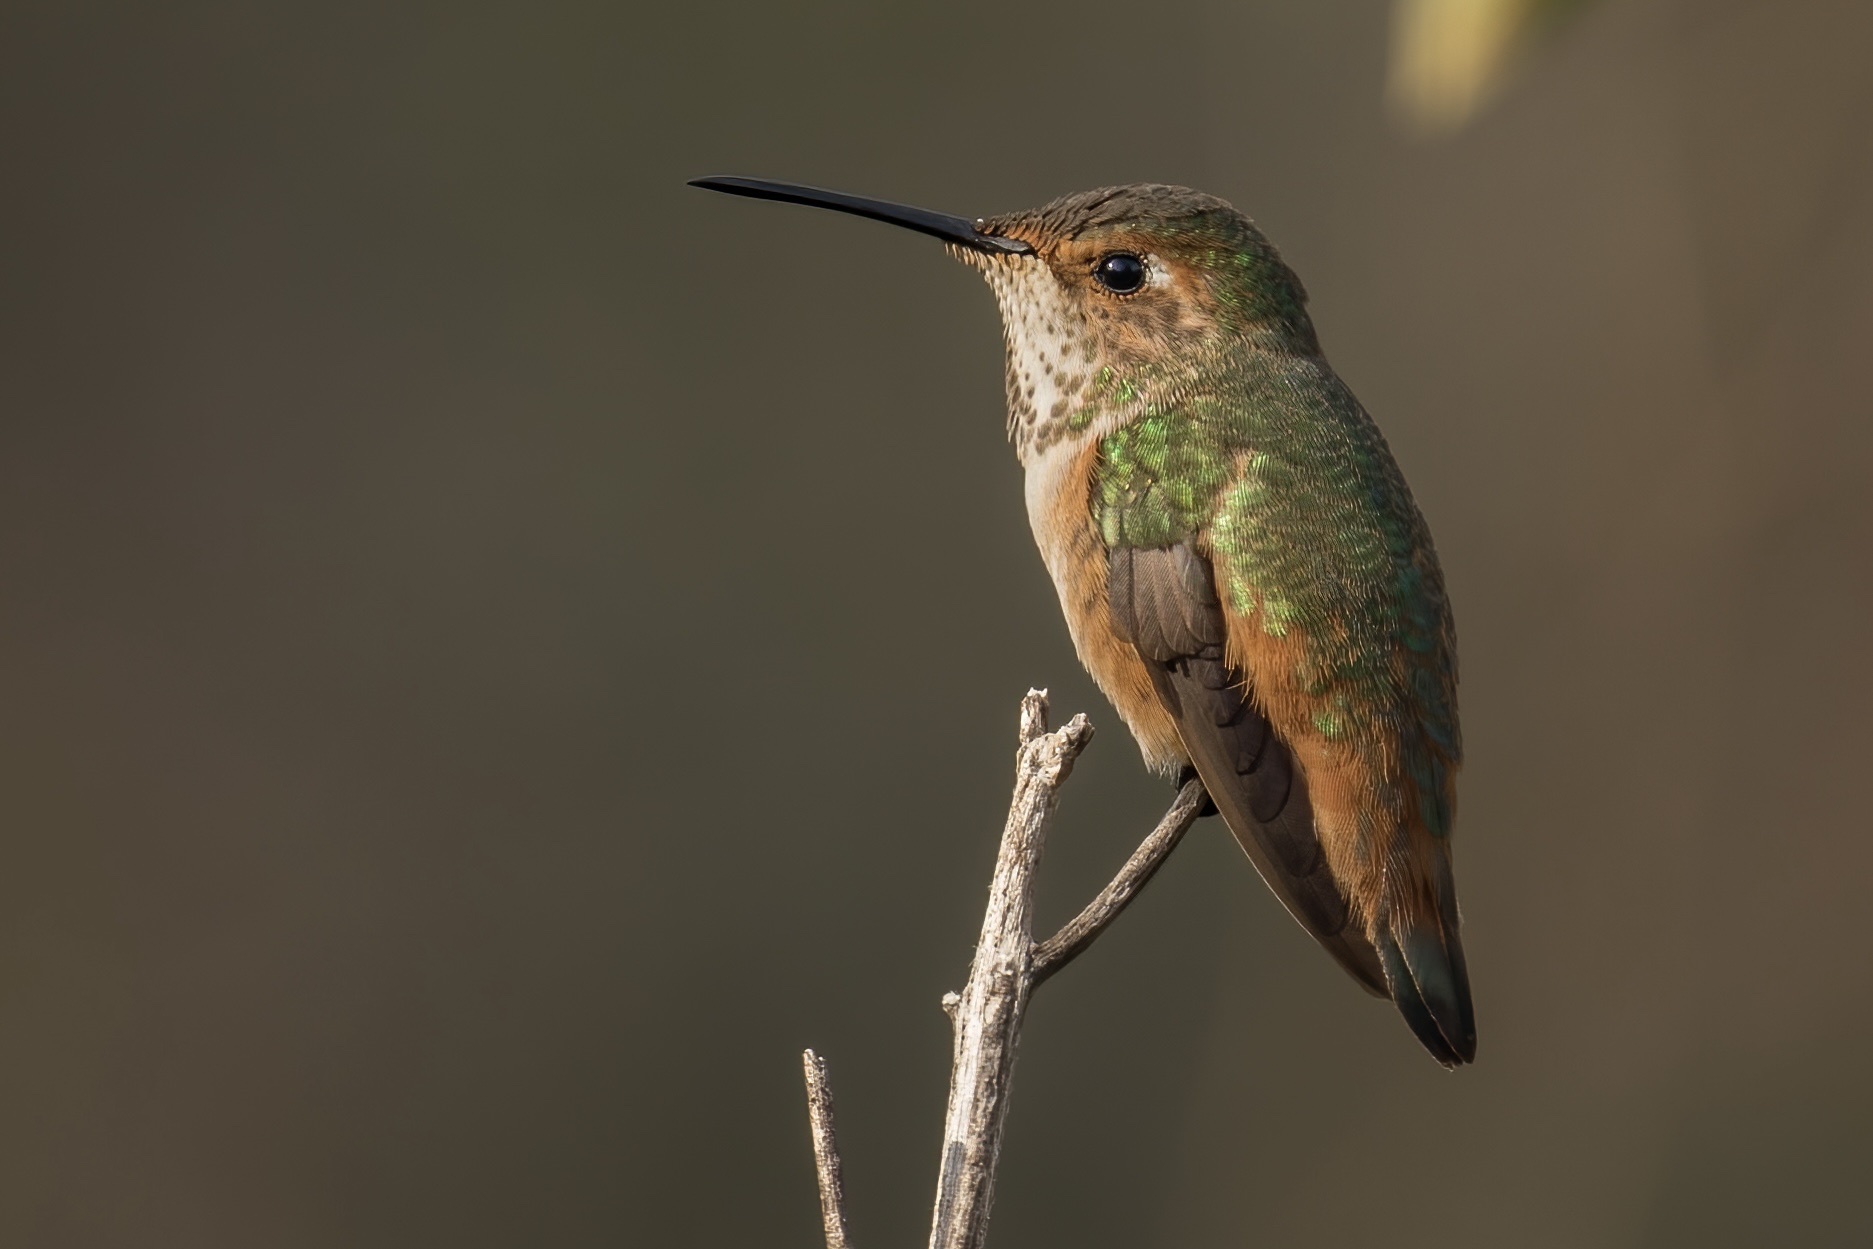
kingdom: Animalia
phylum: Chordata
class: Aves
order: Apodiformes
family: Trochilidae
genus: Selasphorus
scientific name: Selasphorus sasin
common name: Allen's hummingbird
